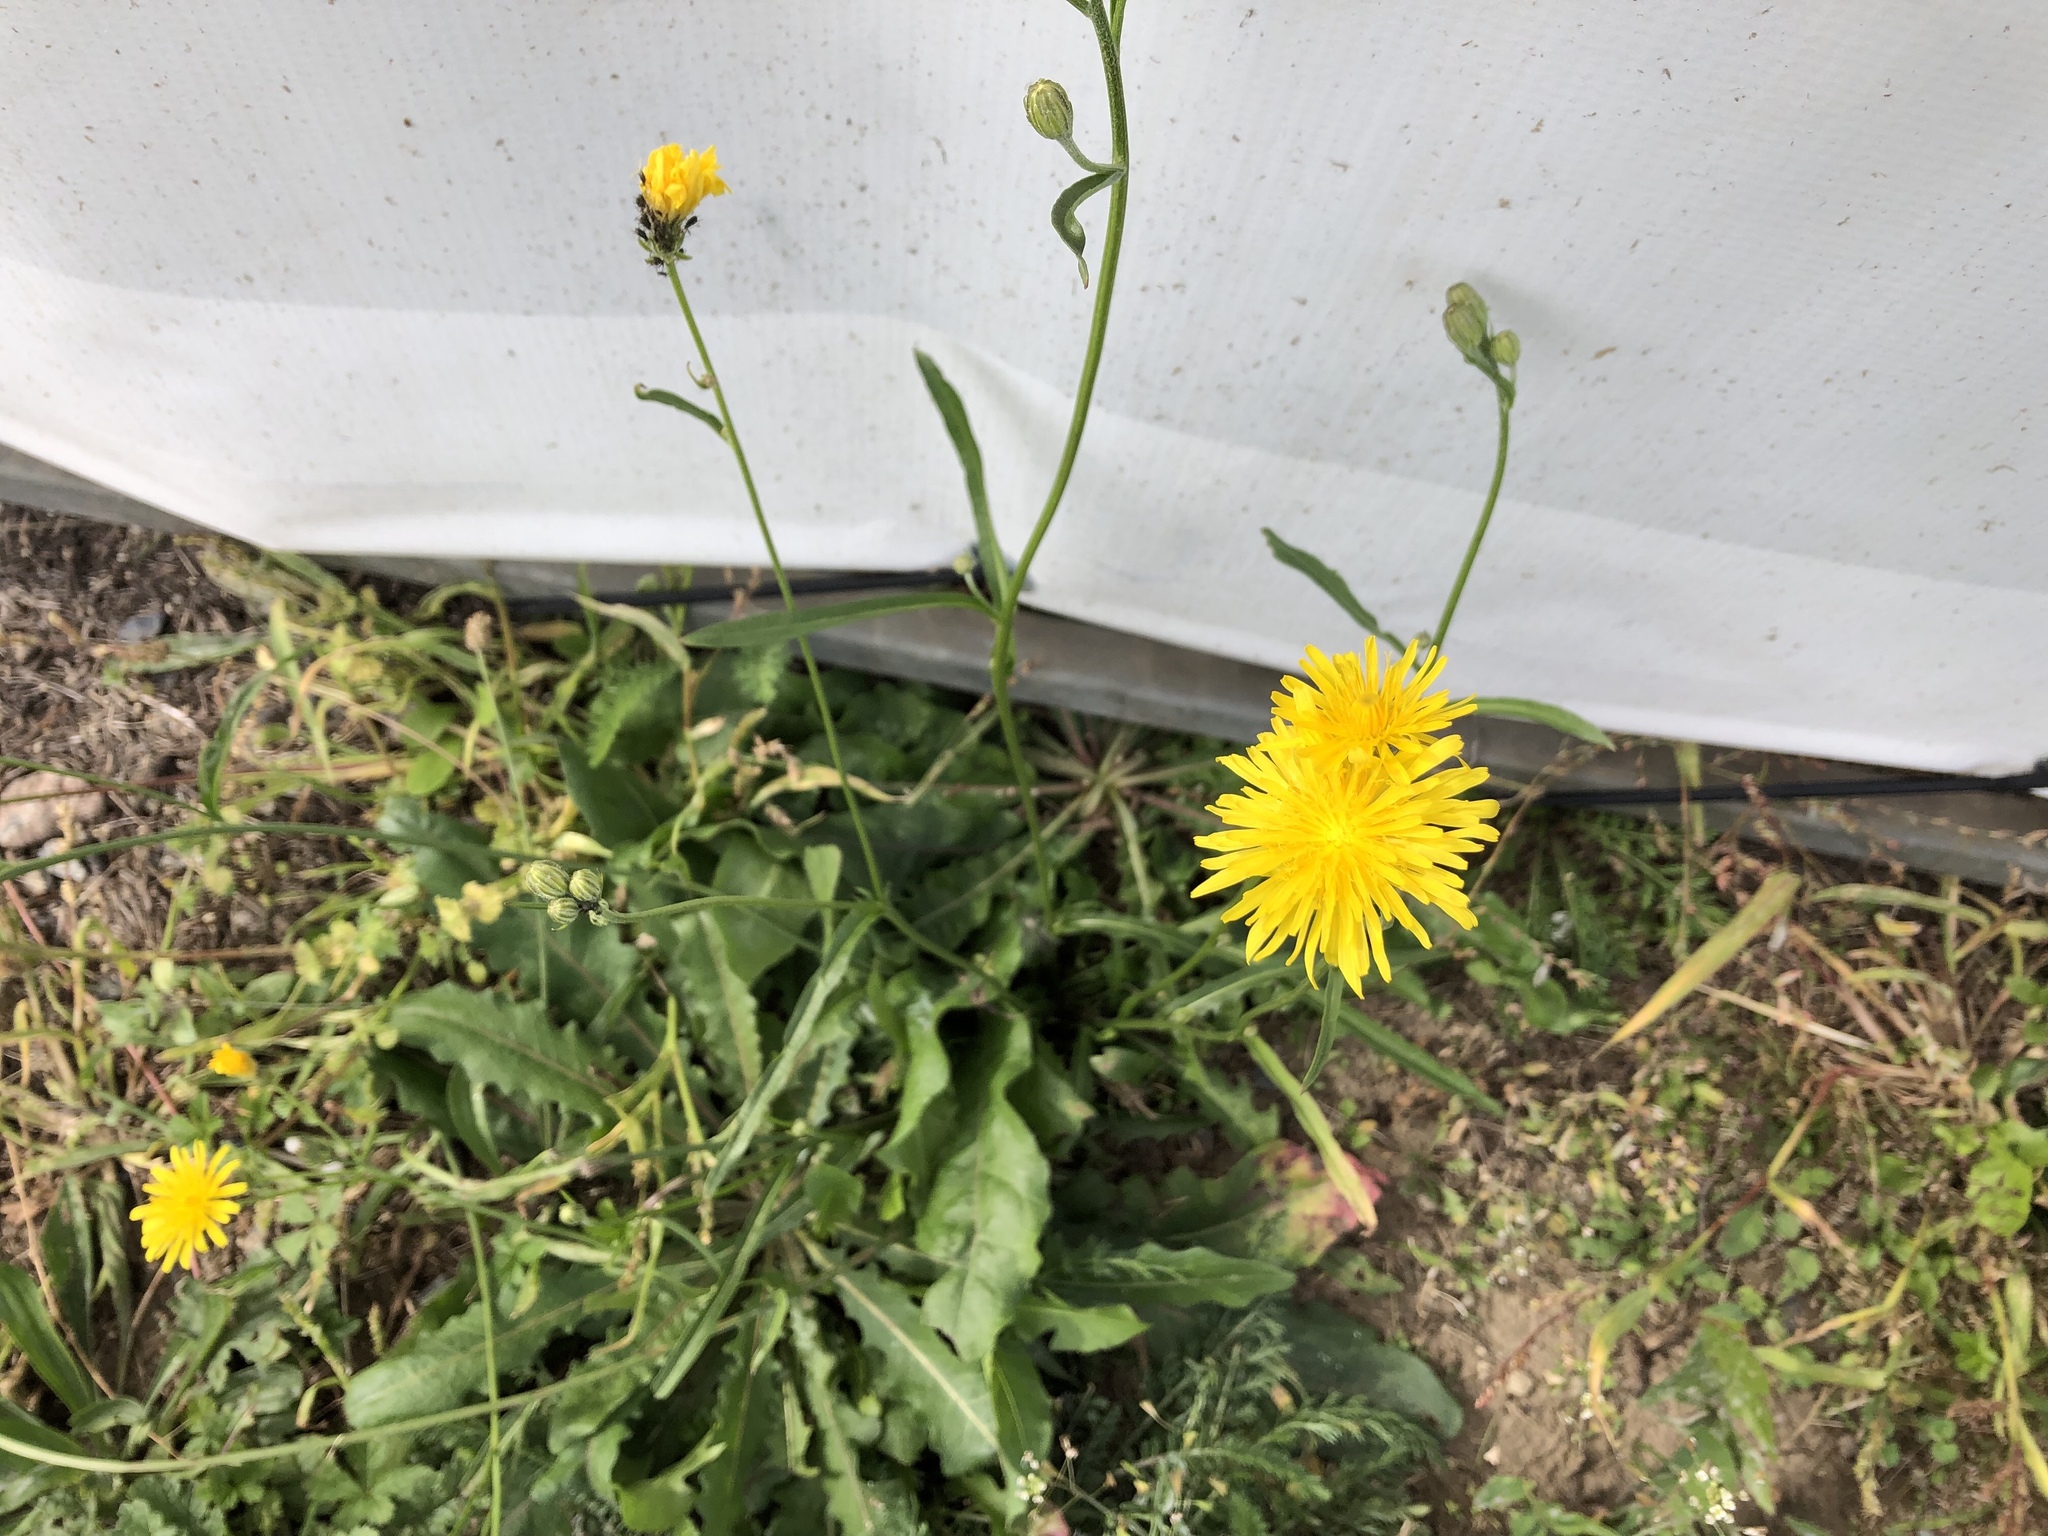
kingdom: Plantae
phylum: Tracheophyta
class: Magnoliopsida
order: Asterales
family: Asteraceae
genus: Crepis
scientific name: Crepis biennis
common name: Rough hawk's-beard
